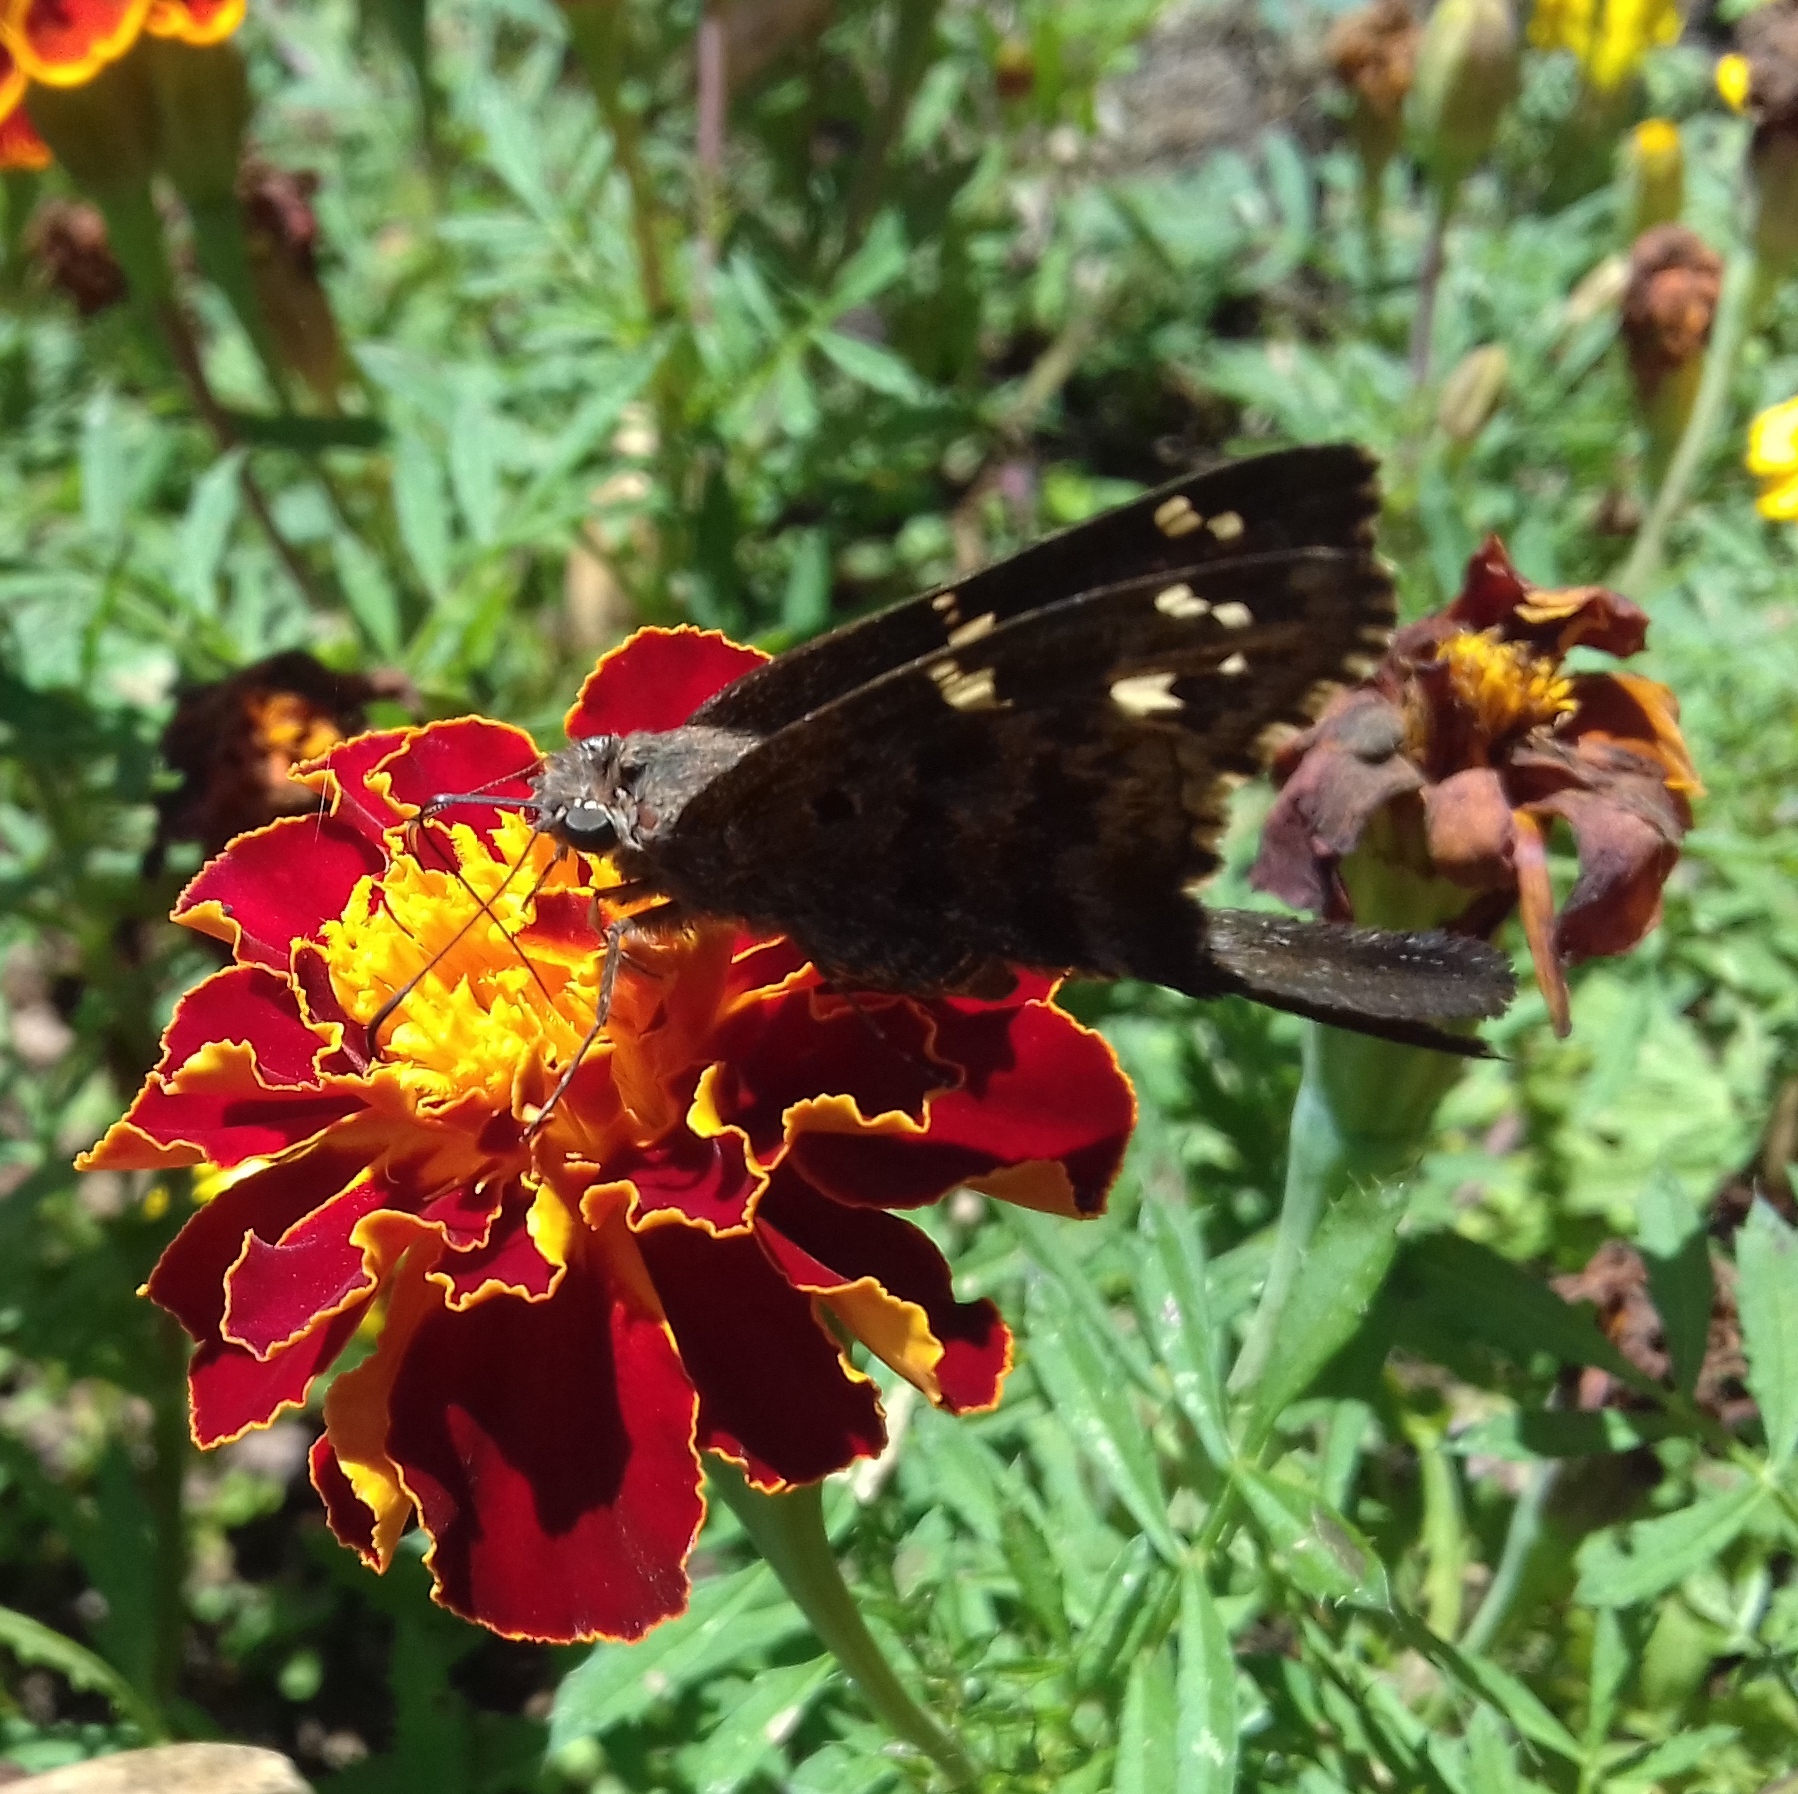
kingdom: Animalia
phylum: Arthropoda
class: Insecta
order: Lepidoptera
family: Hesperiidae
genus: Thorybes
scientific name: Thorybes
